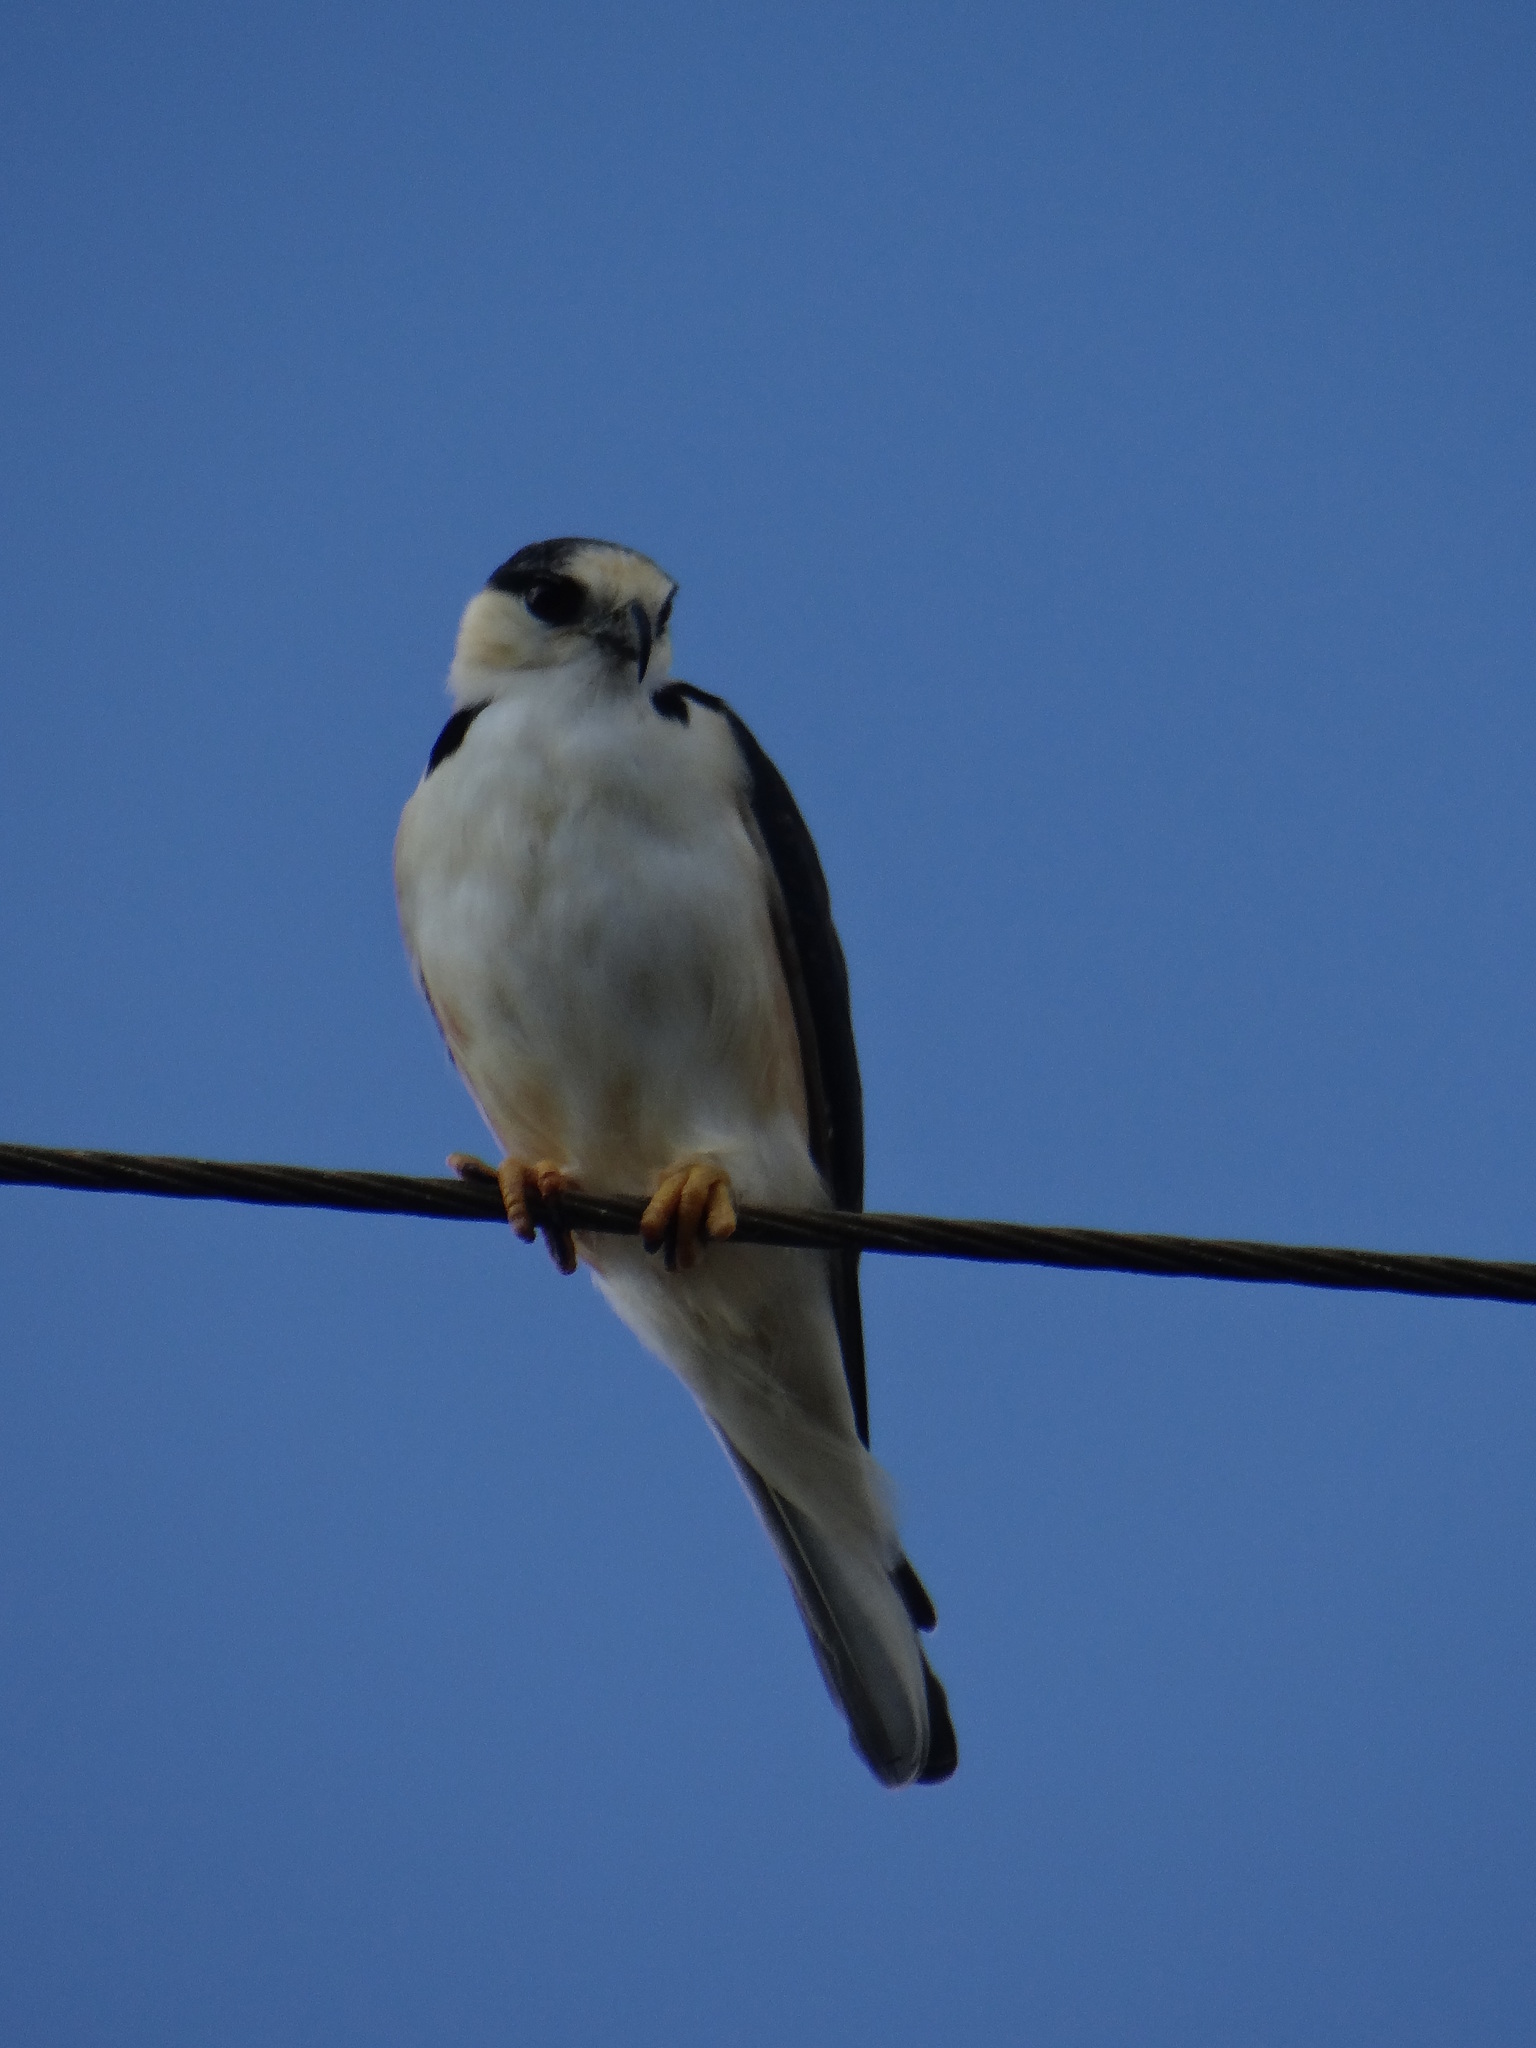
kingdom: Animalia
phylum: Chordata
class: Aves
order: Accipitriformes
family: Accipitridae
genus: Gampsonyx
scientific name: Gampsonyx swainsonii
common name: Pearl kite
